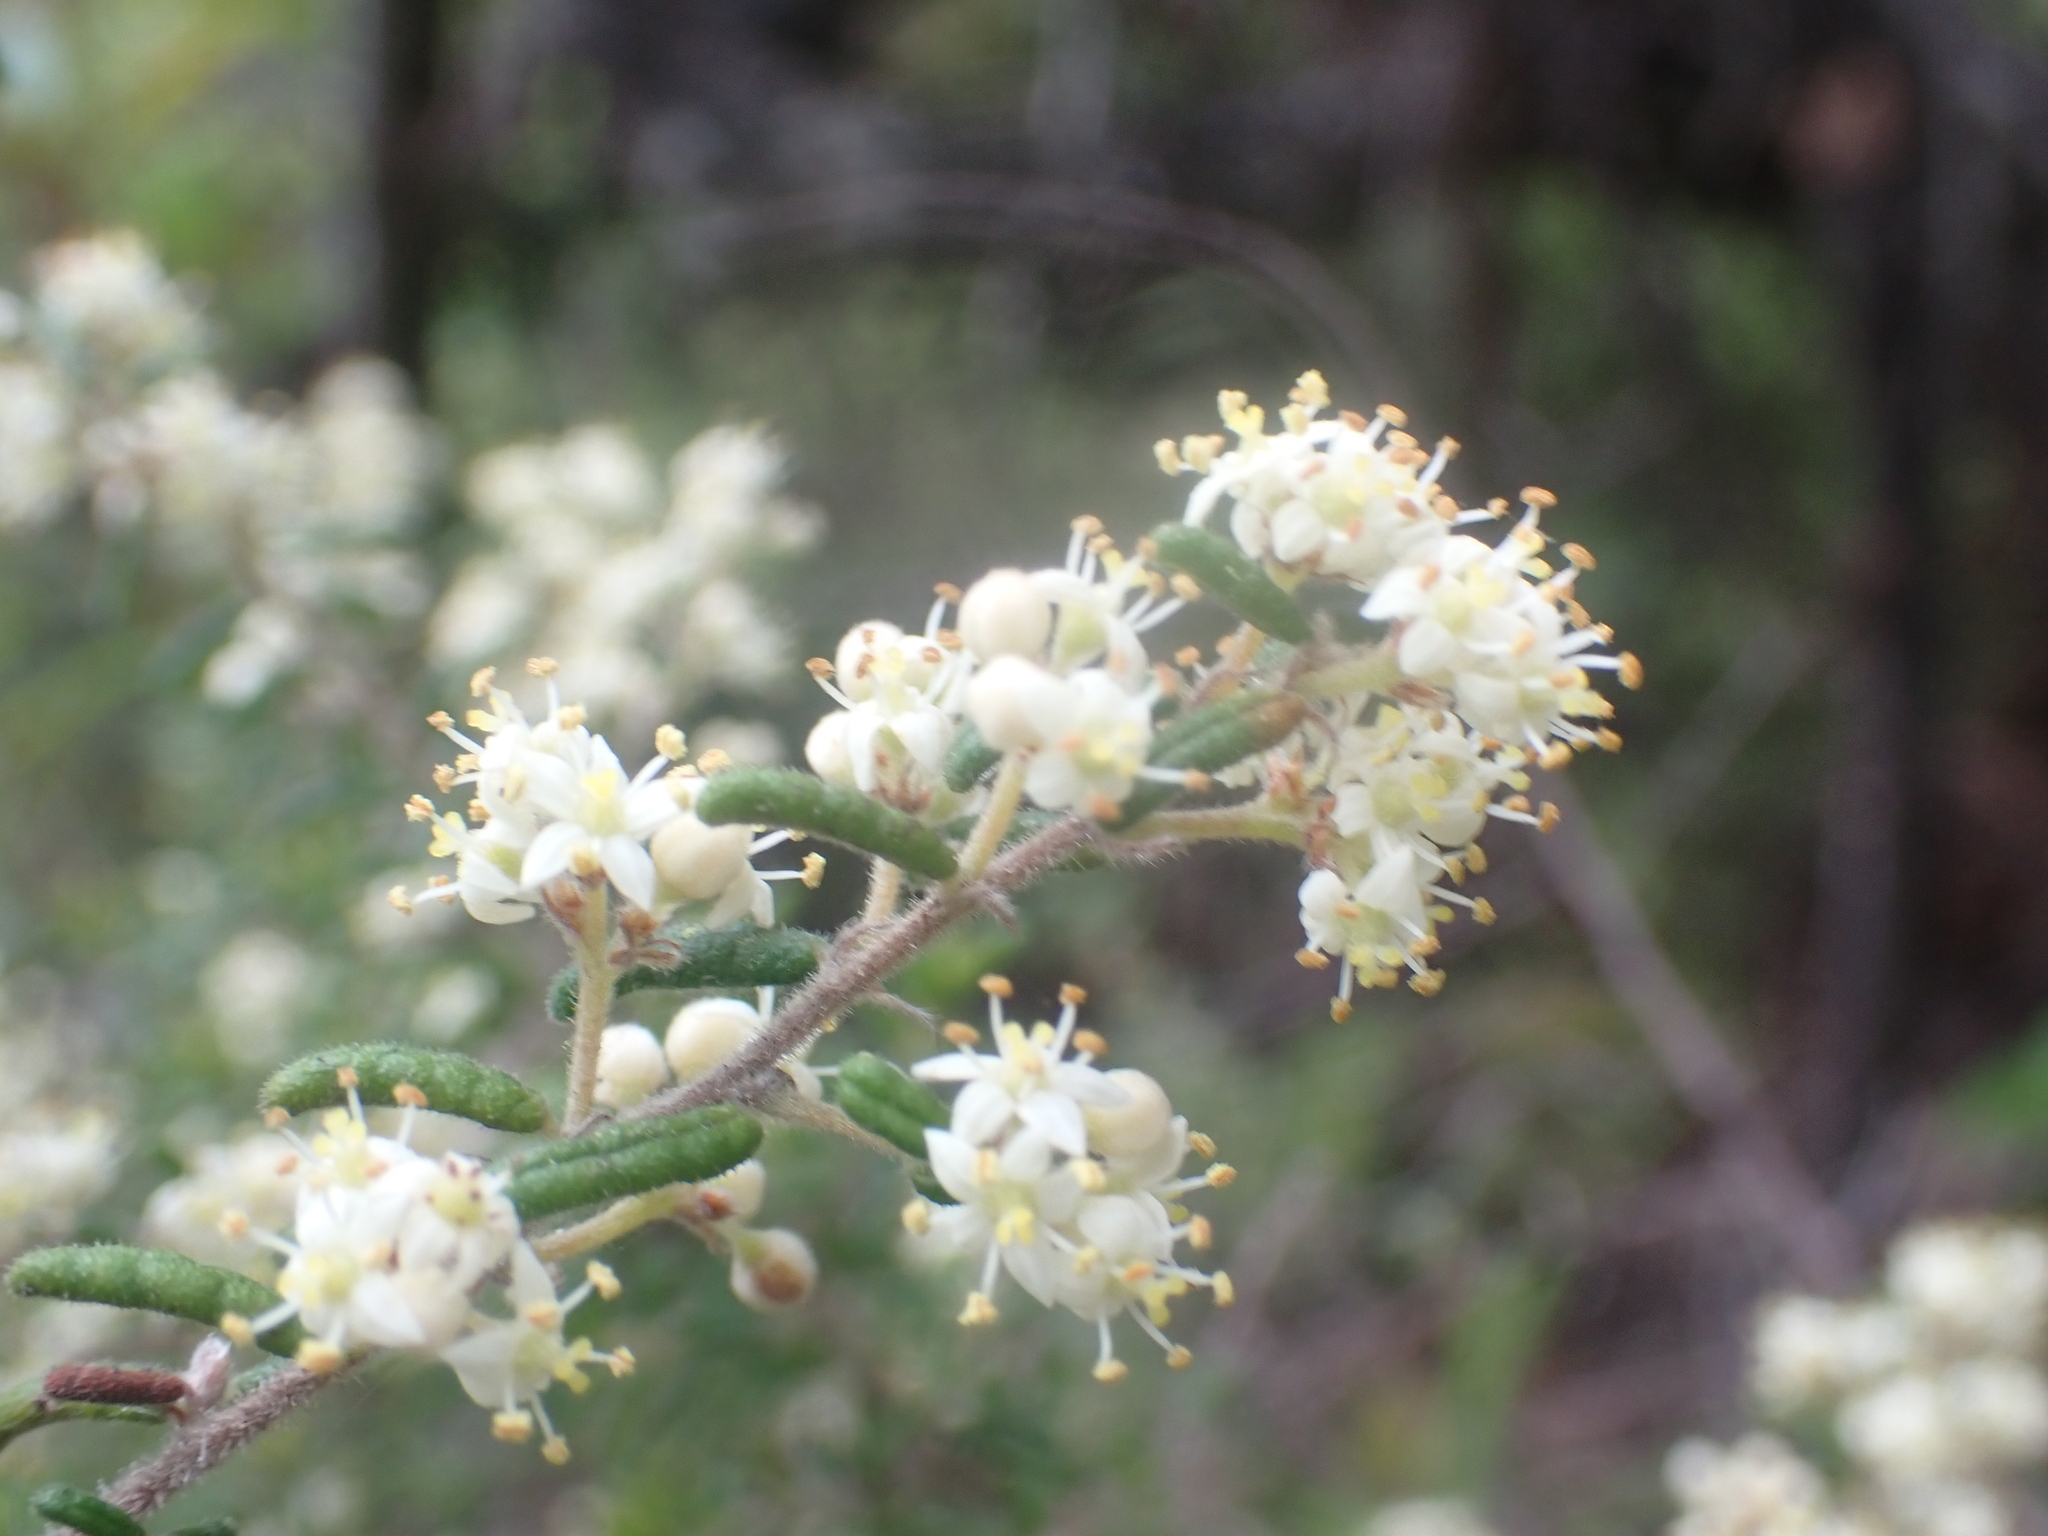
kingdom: Plantae
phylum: Tracheophyta
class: Magnoliopsida
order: Rosales
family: Rhamnaceae
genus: Pomaderris
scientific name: Pomaderris amoena
